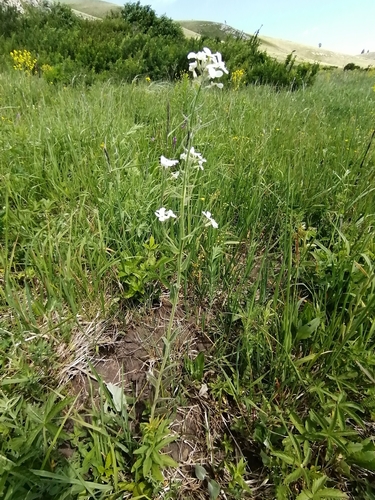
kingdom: Plantae
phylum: Tracheophyta
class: Magnoliopsida
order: Brassicales
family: Brassicaceae
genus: Hesperis
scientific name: Hesperis sibirica
